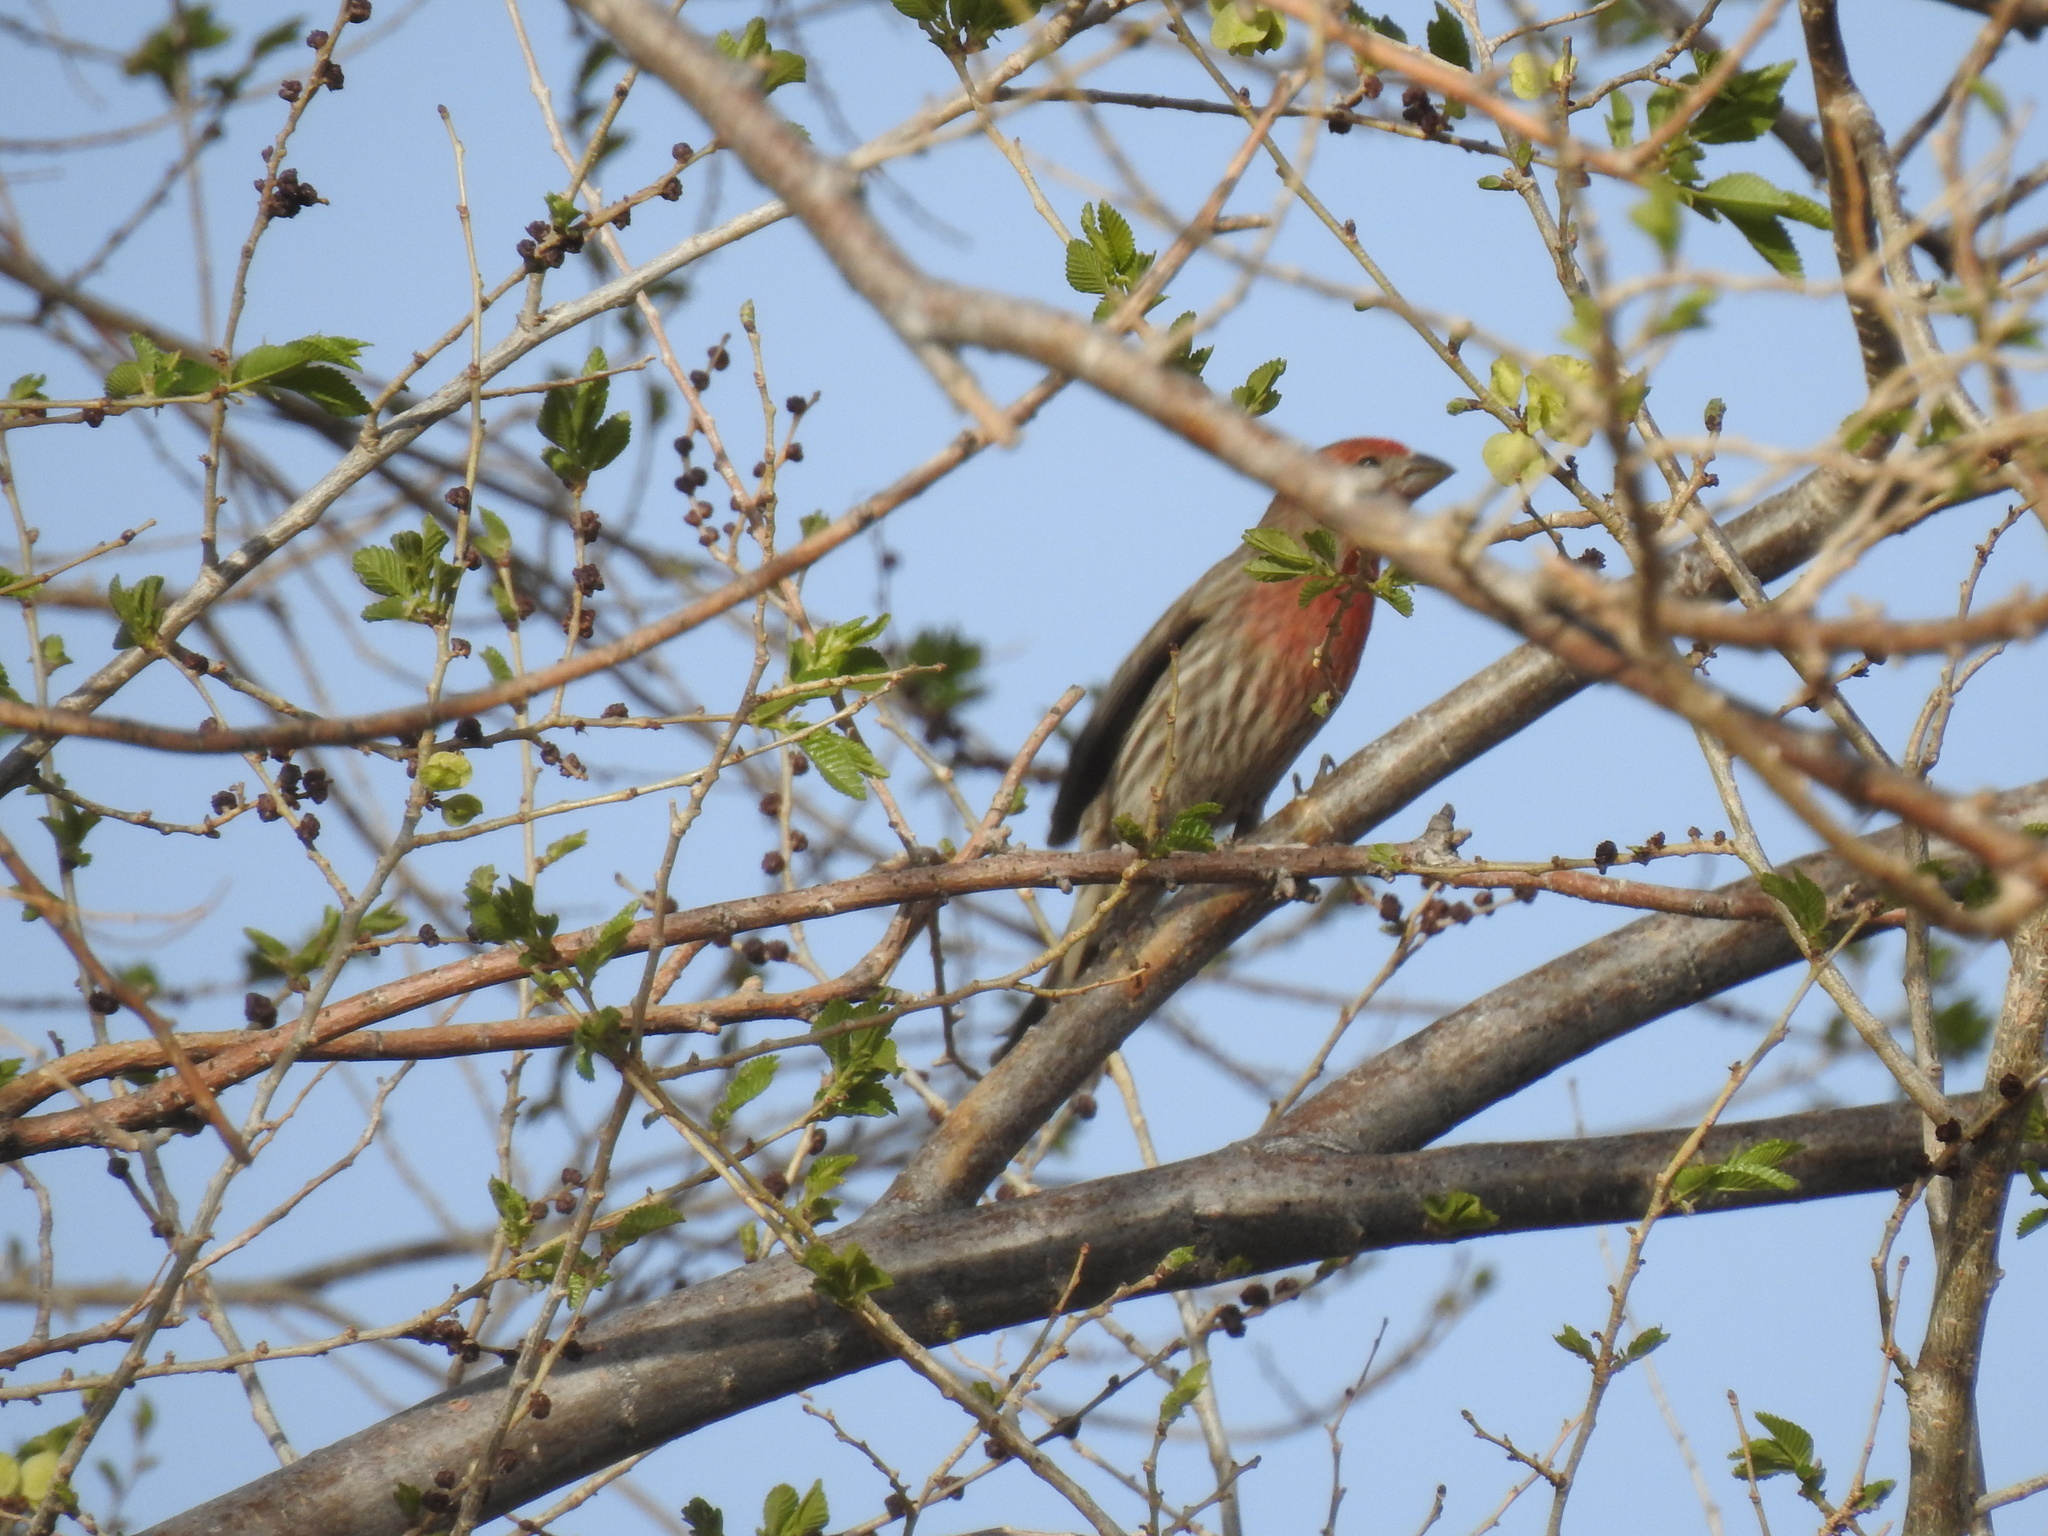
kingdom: Animalia
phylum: Chordata
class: Aves
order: Passeriformes
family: Fringillidae
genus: Haemorhous
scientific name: Haemorhous mexicanus
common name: House finch
